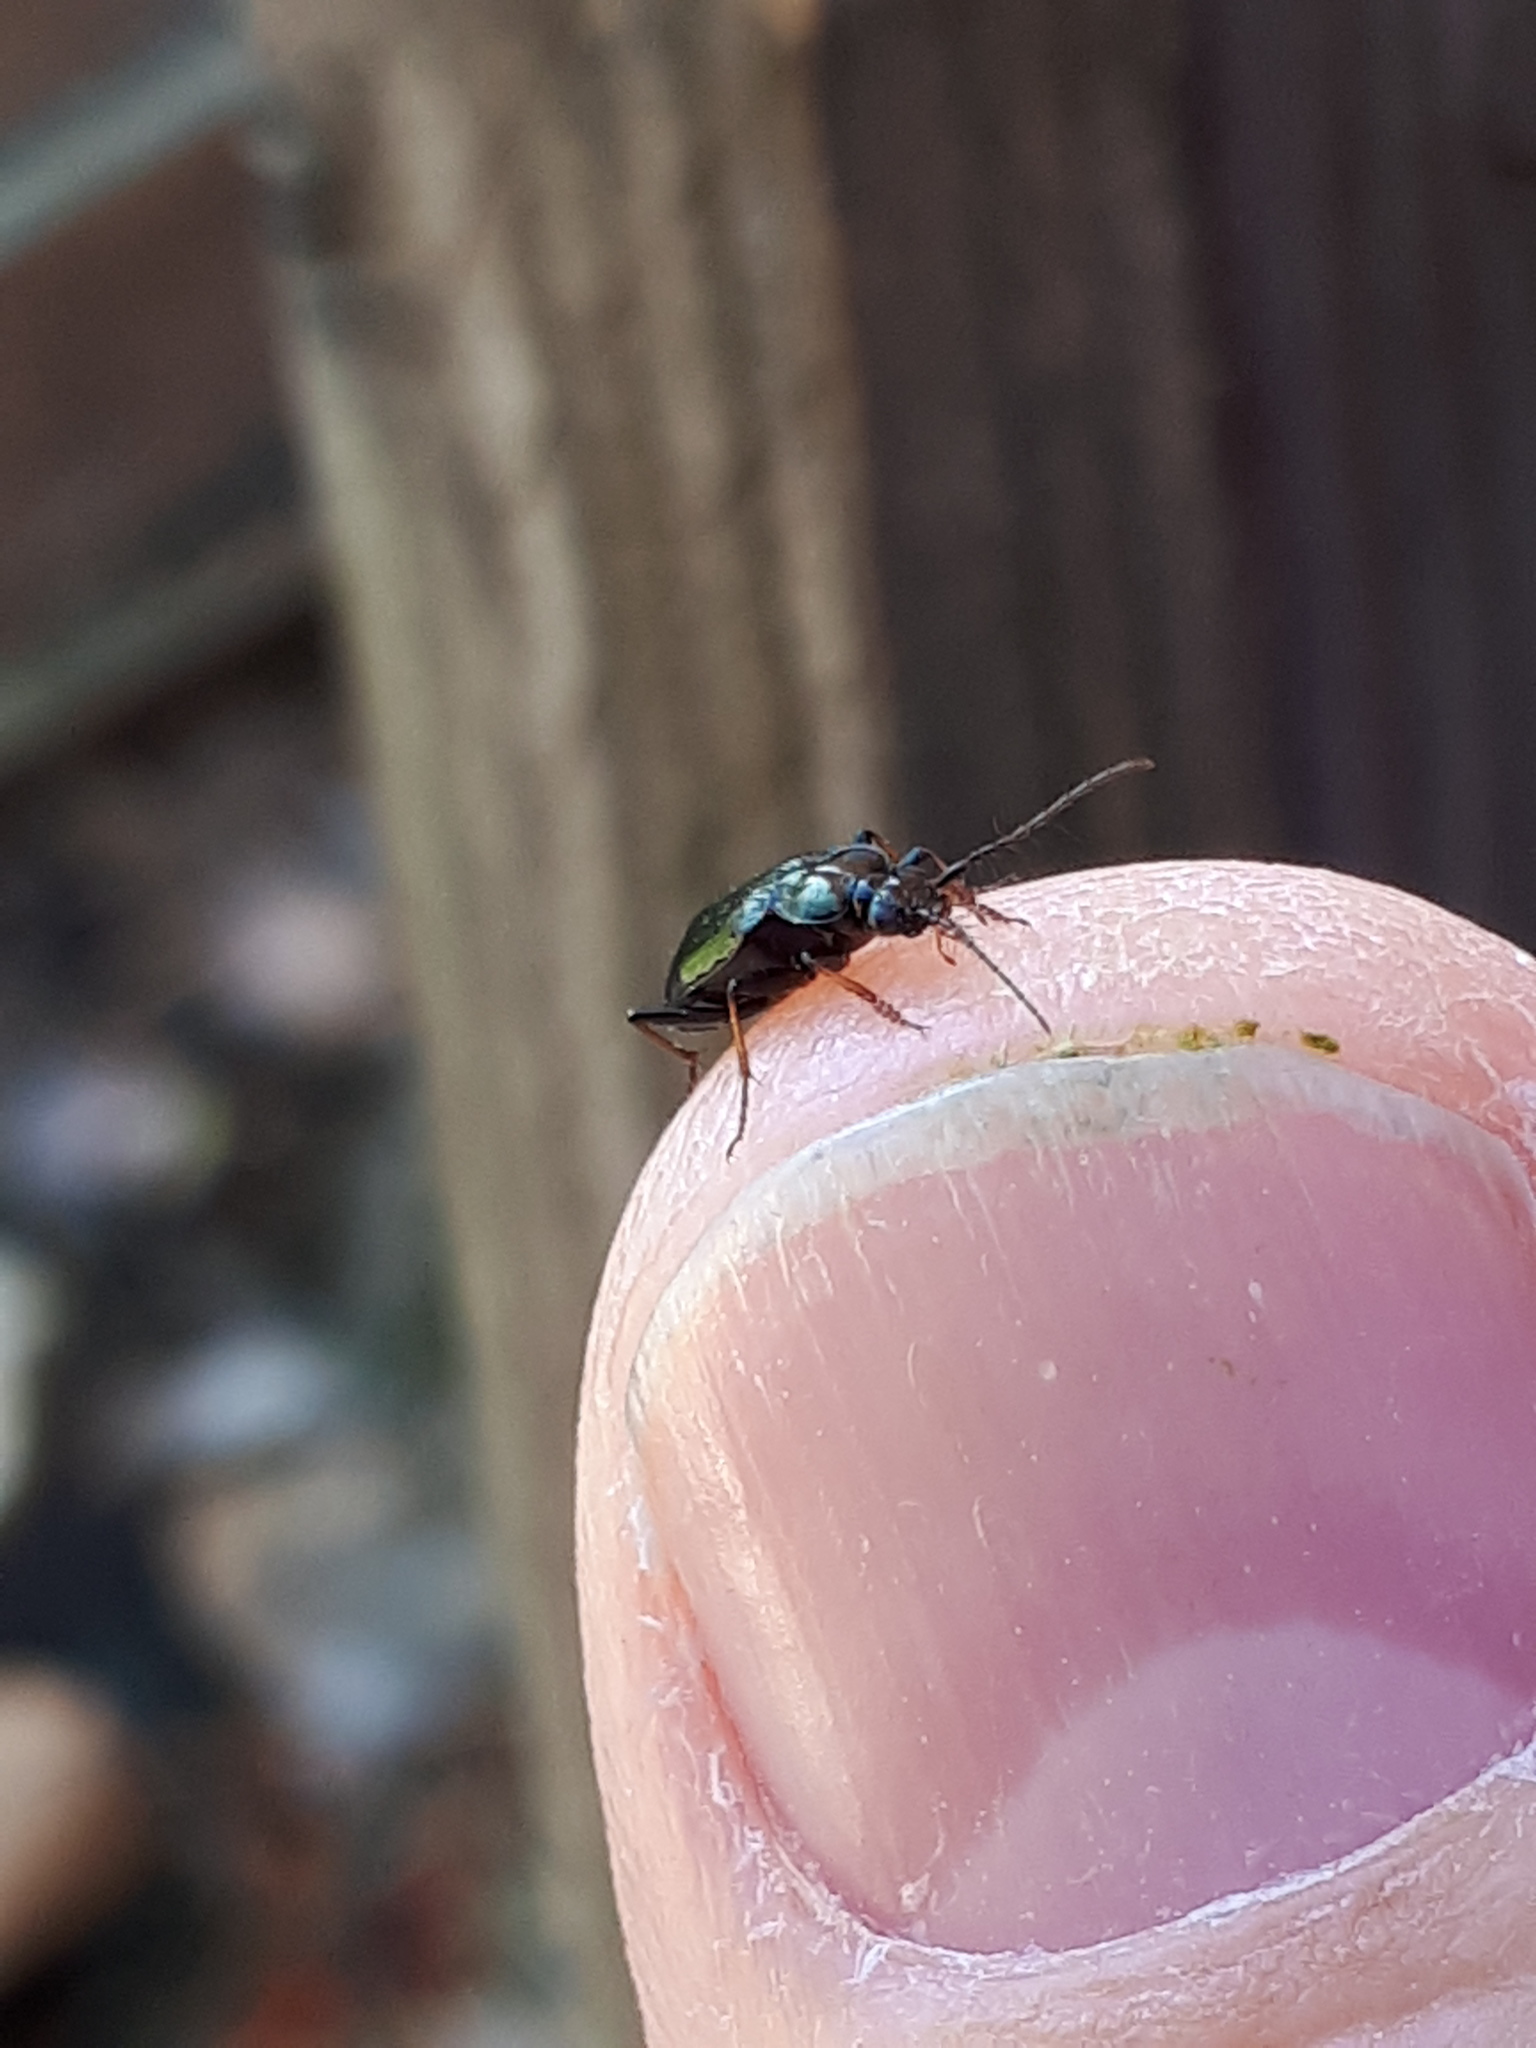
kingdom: Animalia
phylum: Arthropoda
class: Insecta
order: Coleoptera
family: Carabidae
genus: Loricera
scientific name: Loricera pilicornis
